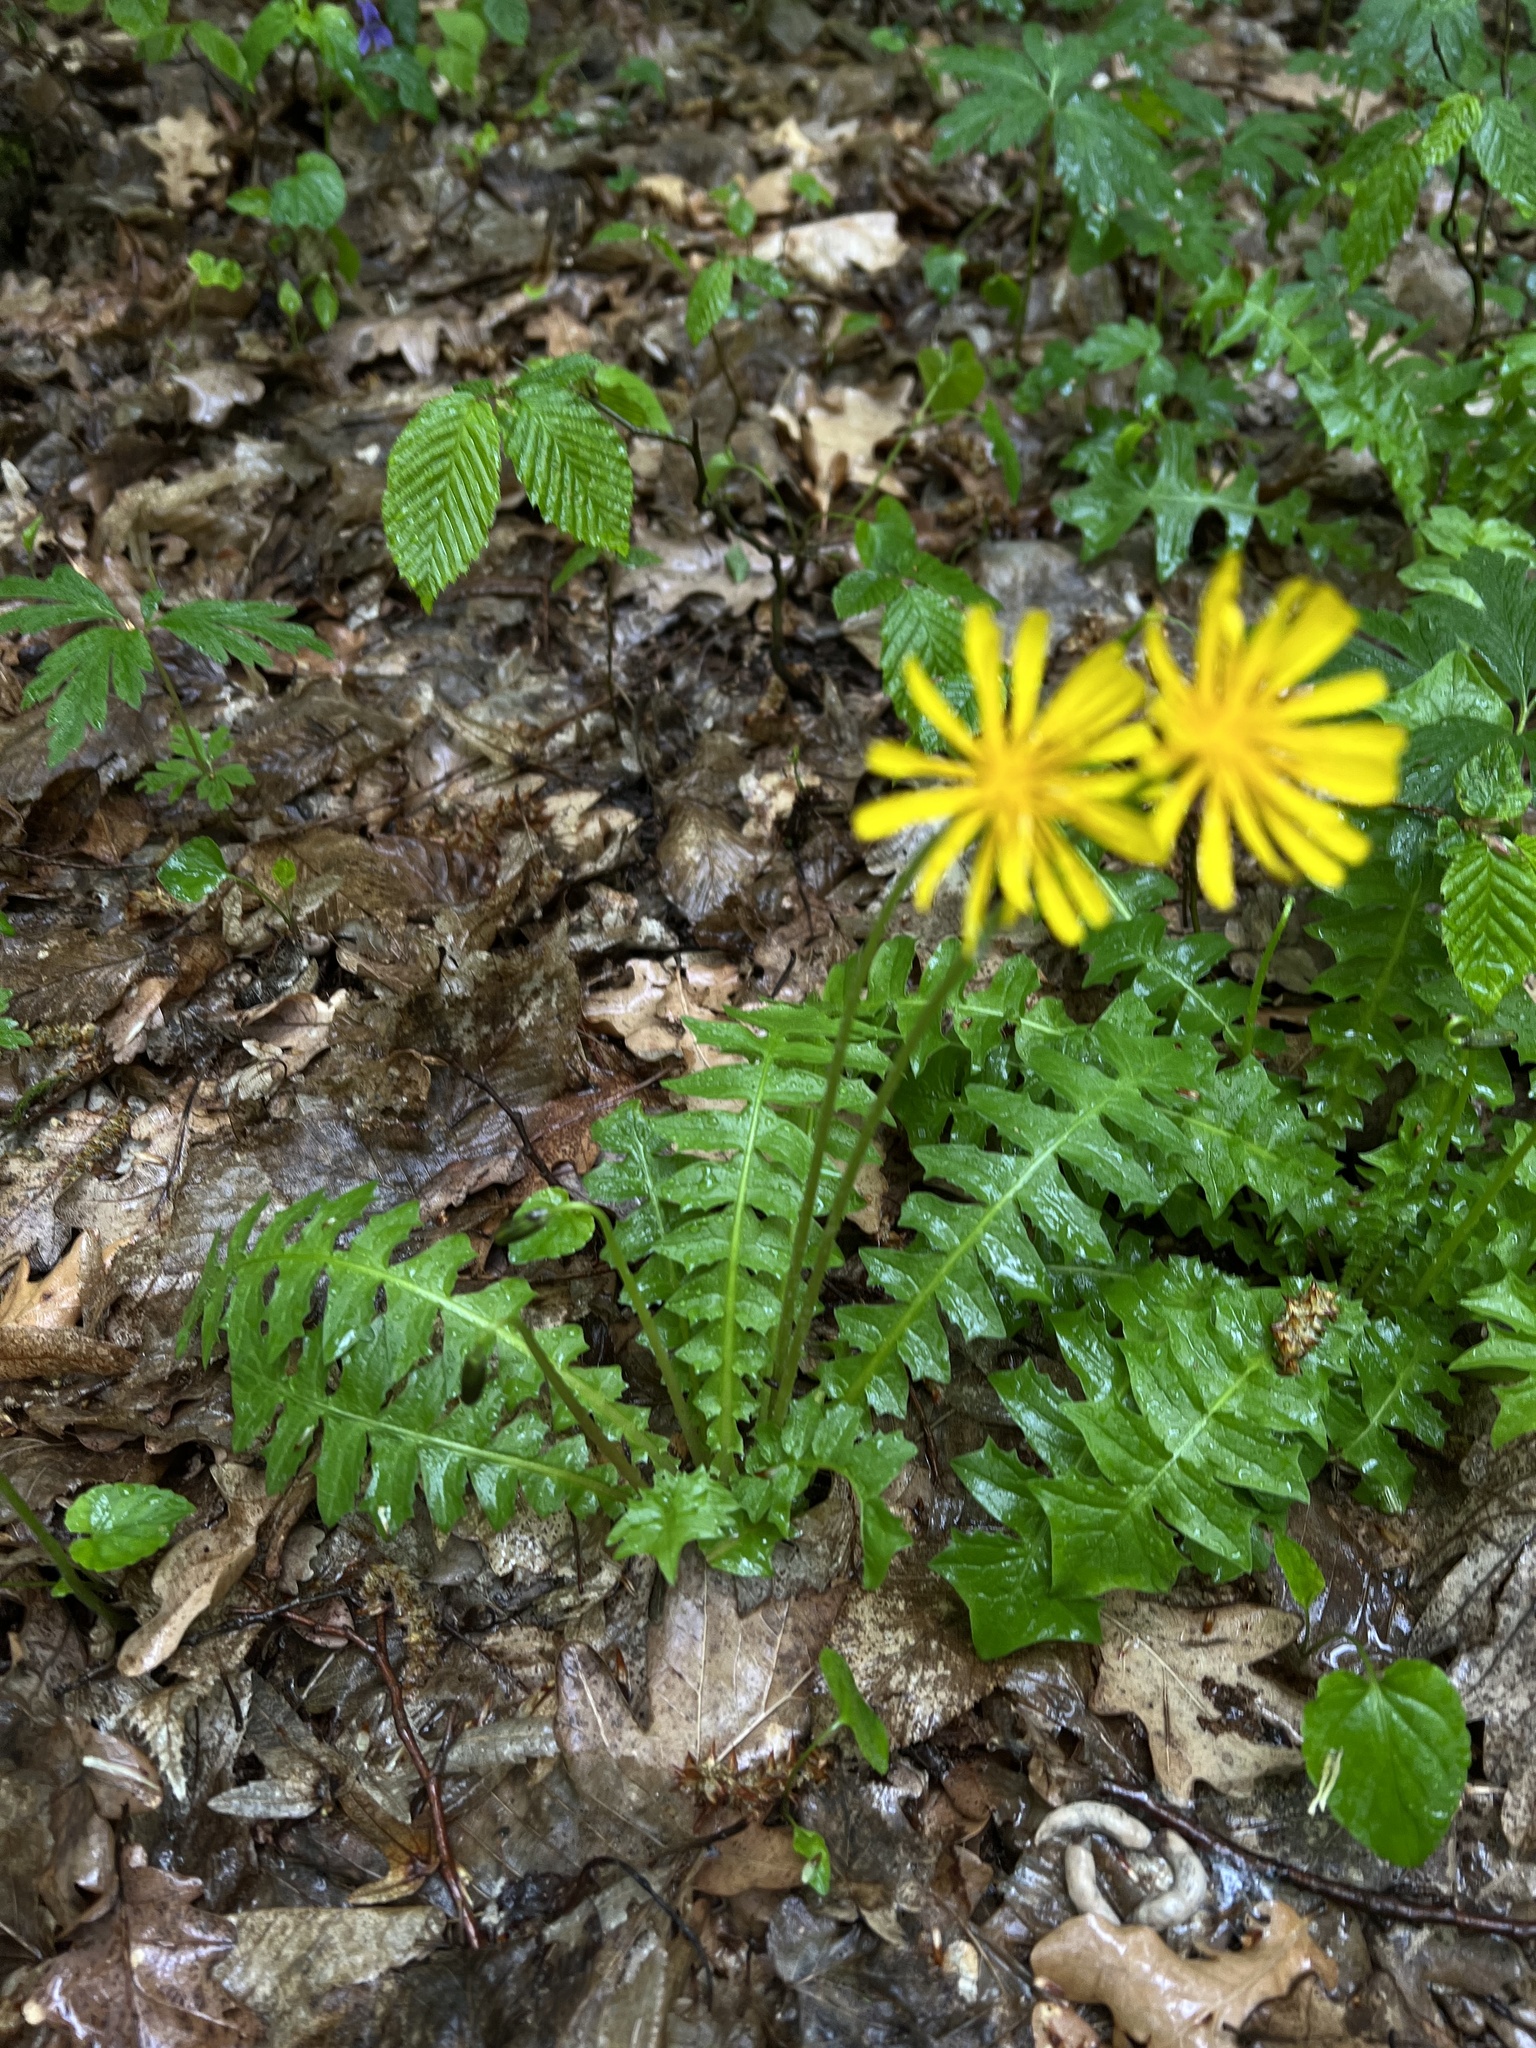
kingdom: Plantae
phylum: Tracheophyta
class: Magnoliopsida
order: Asterales
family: Asteraceae
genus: Aposeris
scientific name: Aposeris foetida
